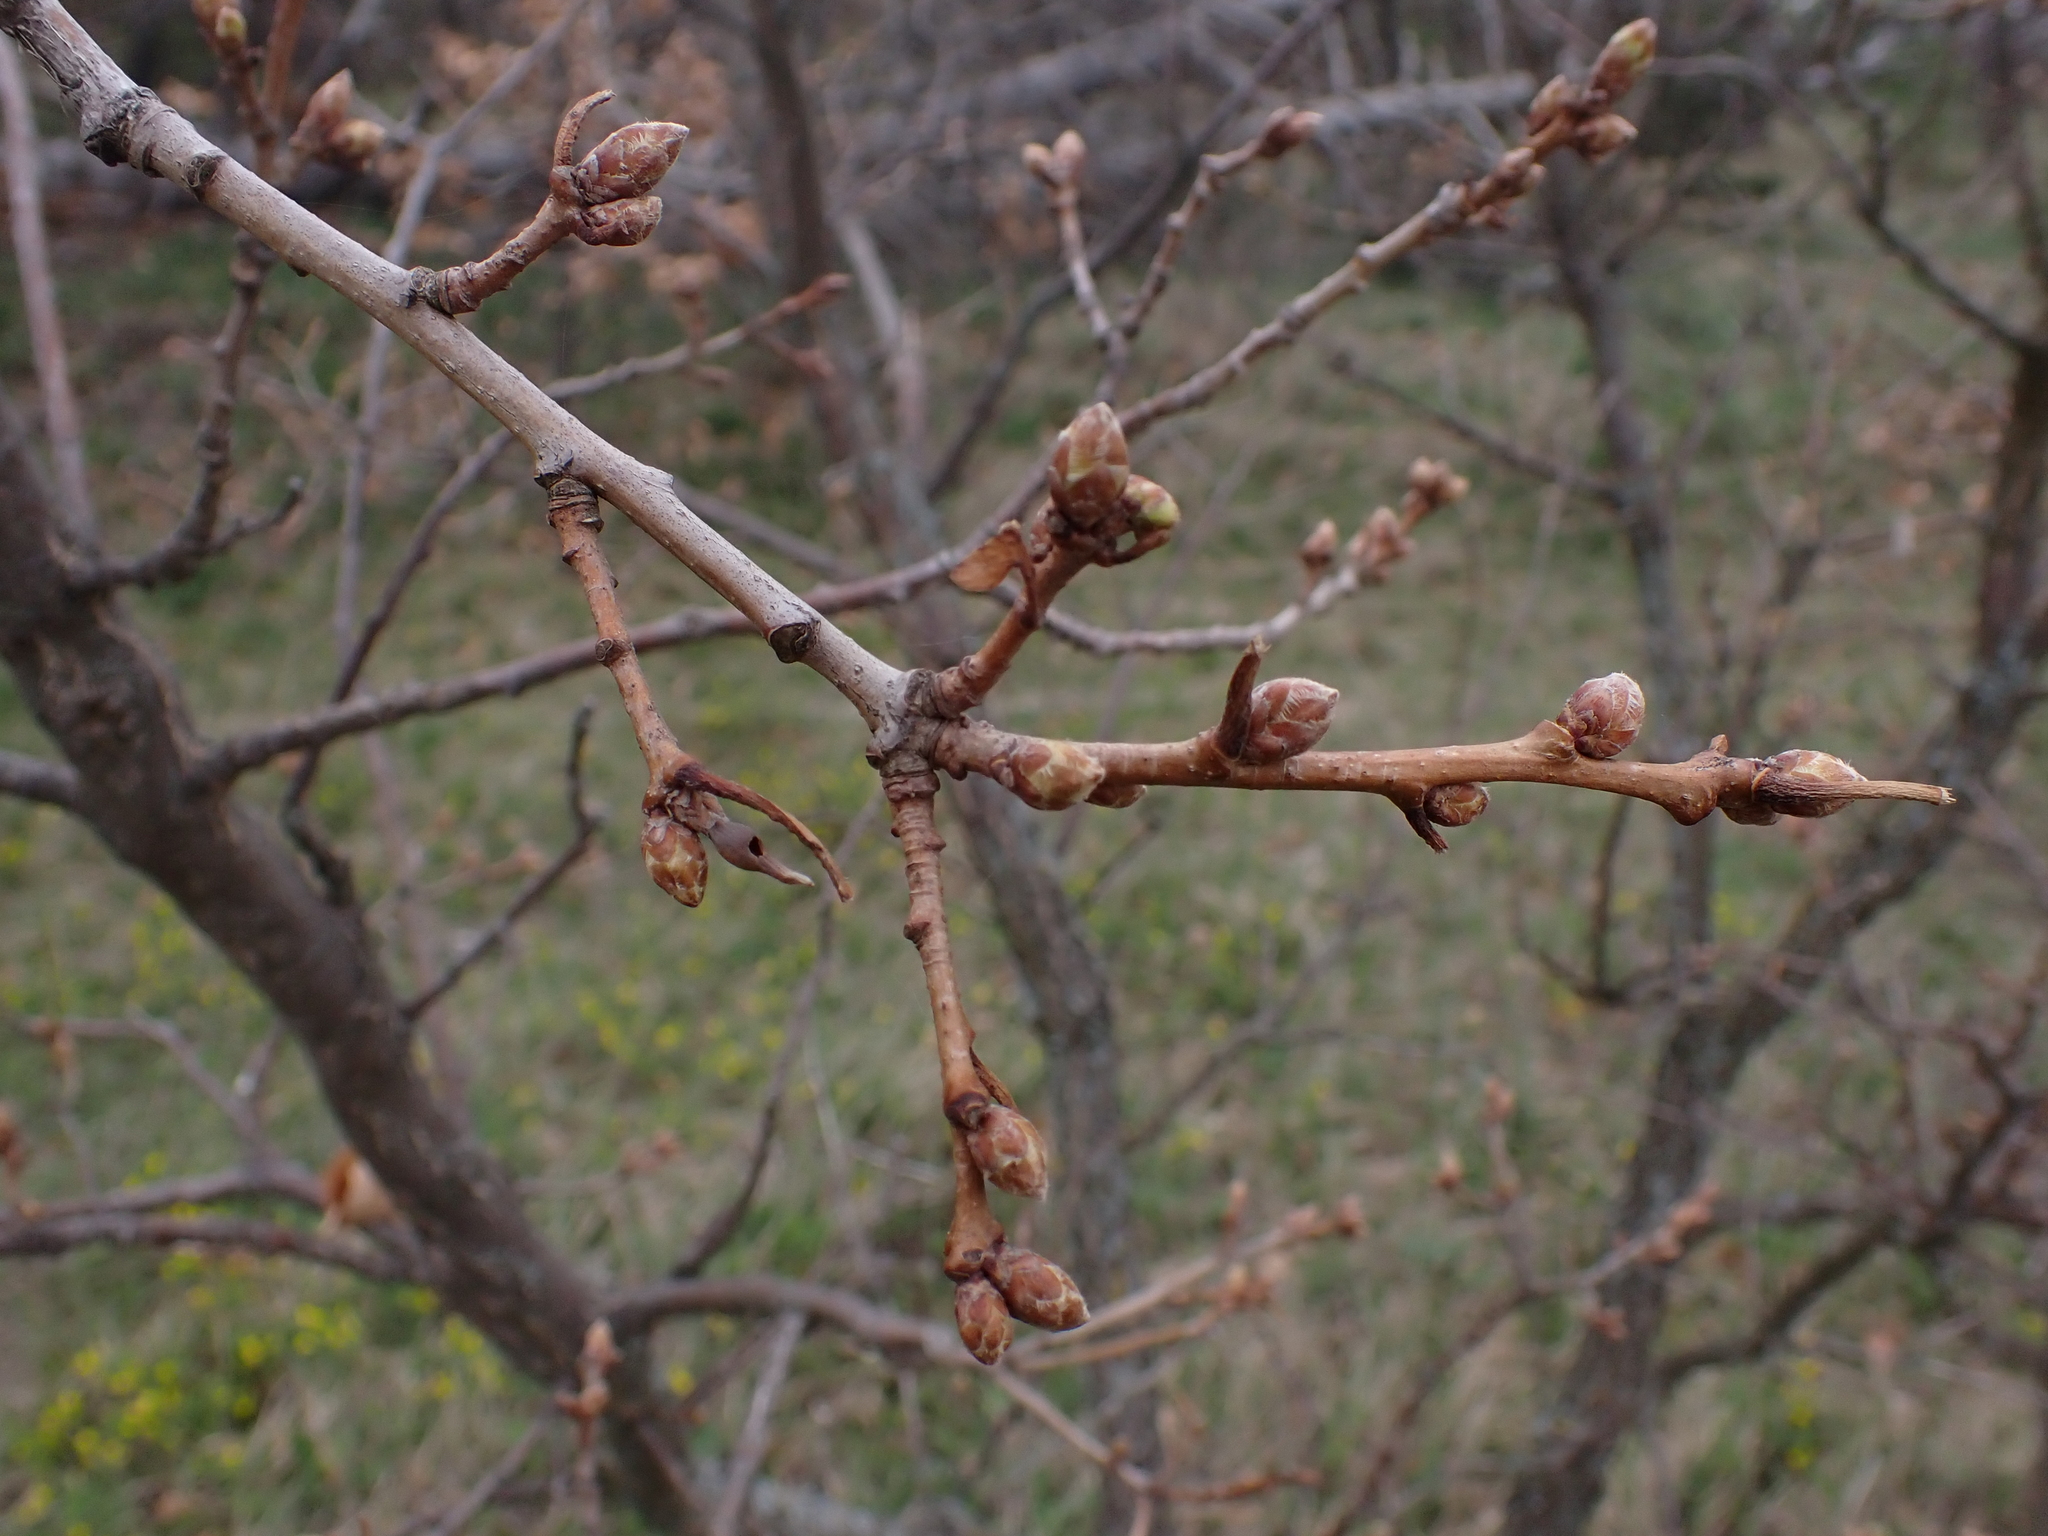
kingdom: Animalia
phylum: Arthropoda
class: Insecta
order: Hymenoptera
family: Cynipidae
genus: Andricus
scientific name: Andricus solitarius
